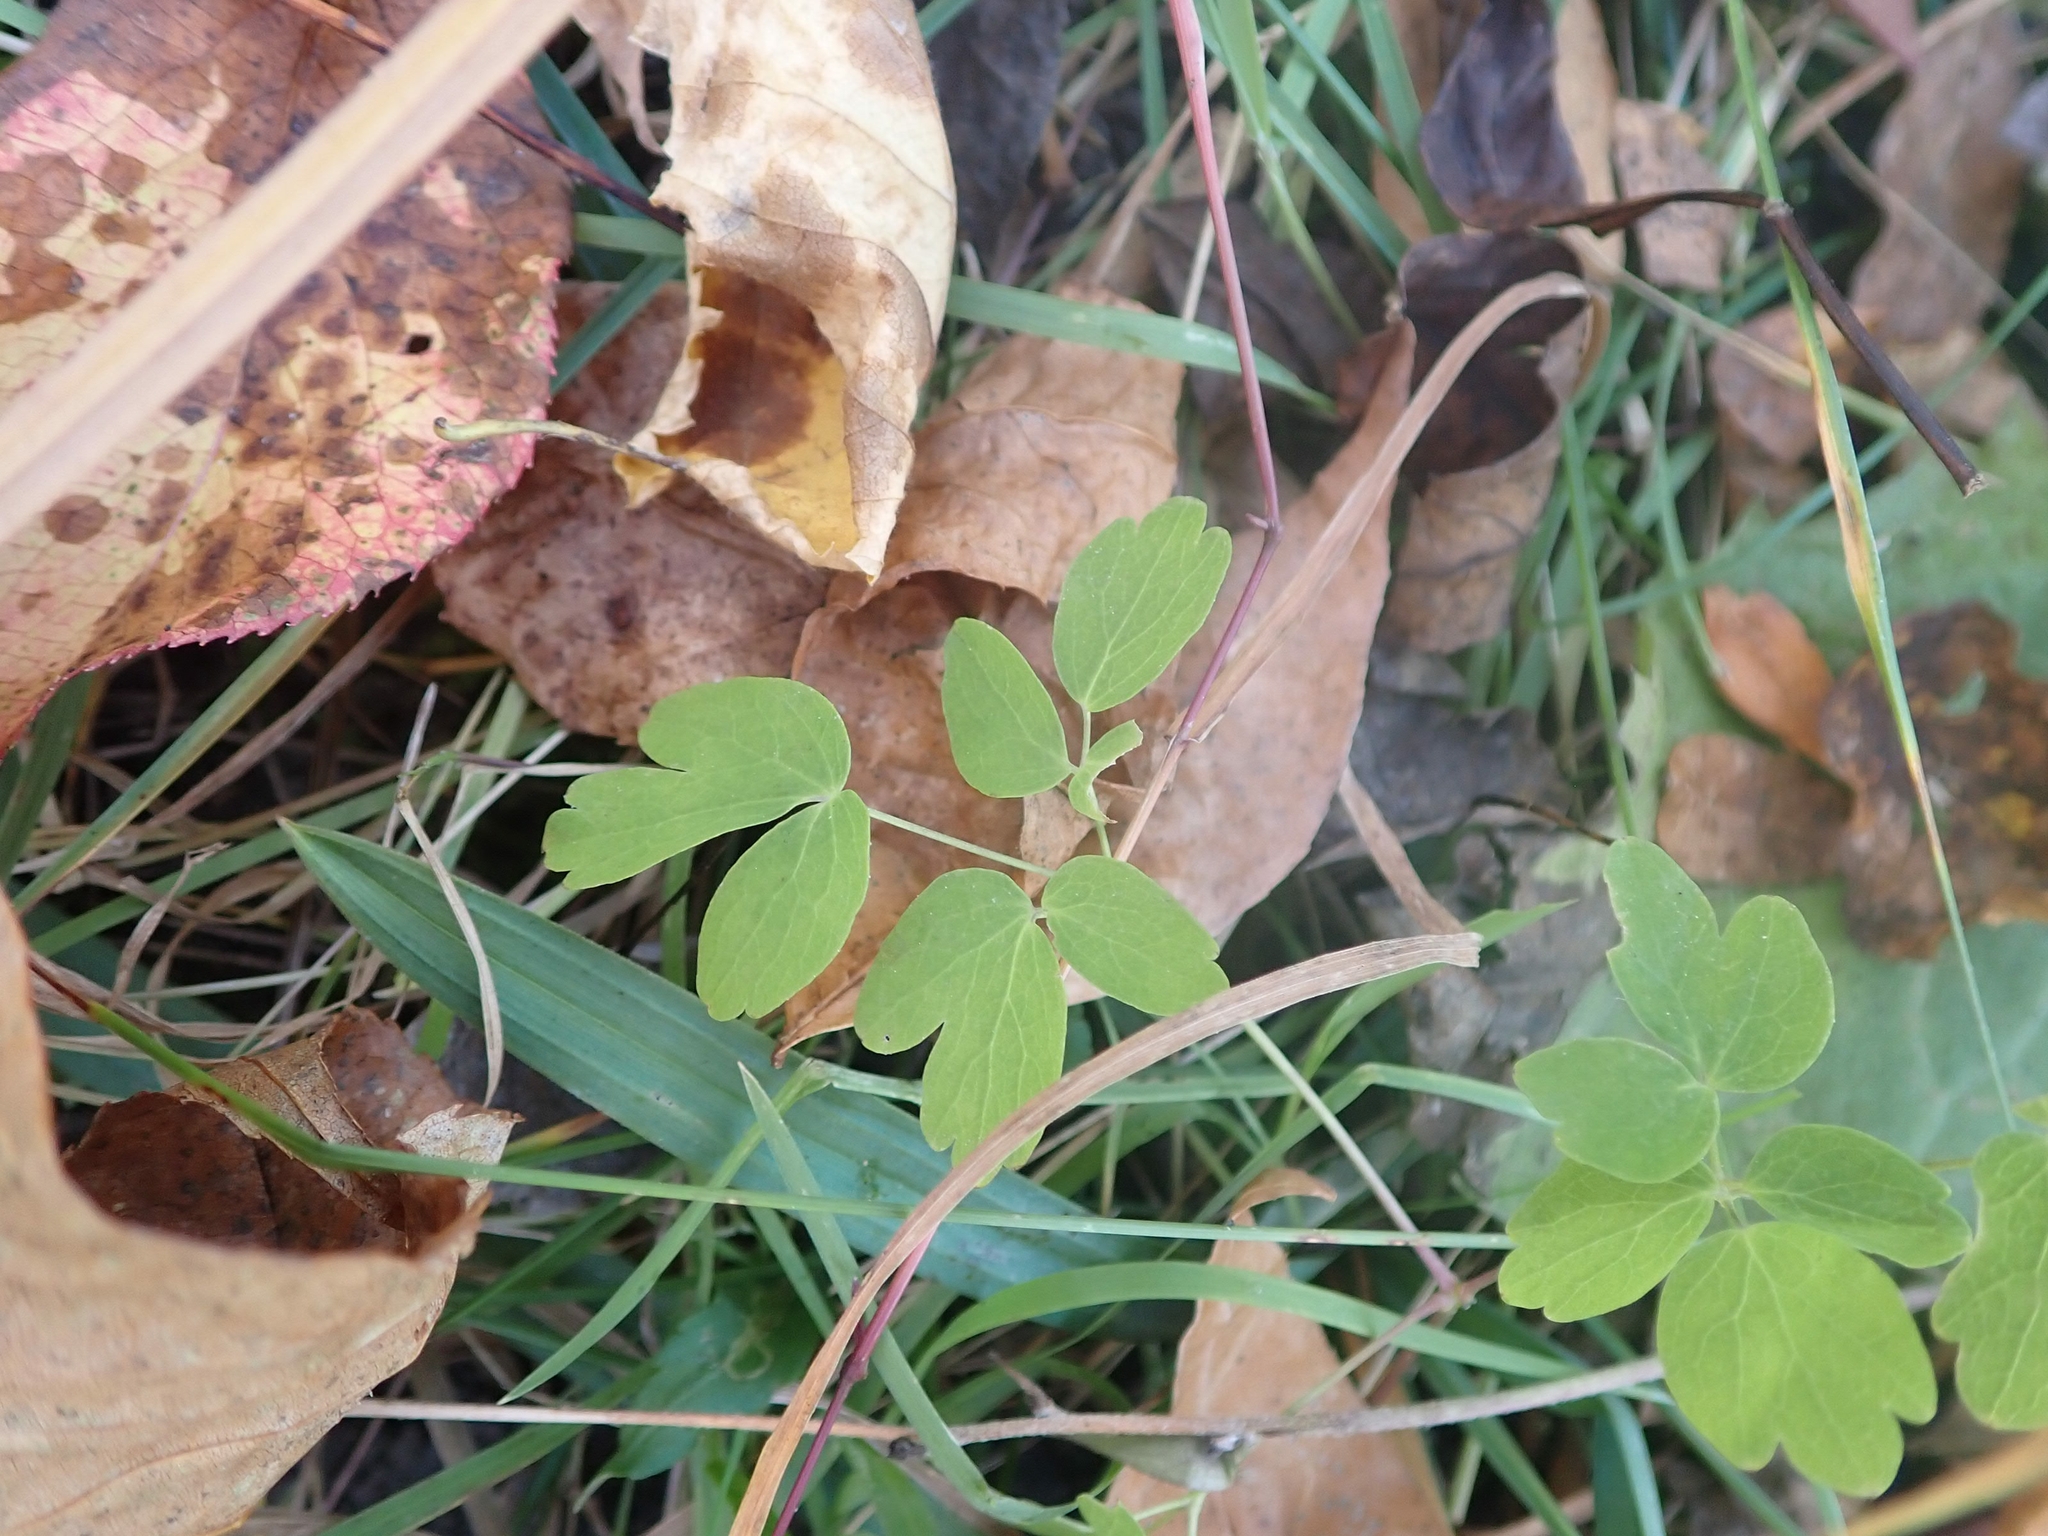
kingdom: Plantae
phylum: Tracheophyta
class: Magnoliopsida
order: Ranunculales
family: Ranunculaceae
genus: Thalictrum
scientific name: Thalictrum dasycarpum
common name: Purple meadow-rue
